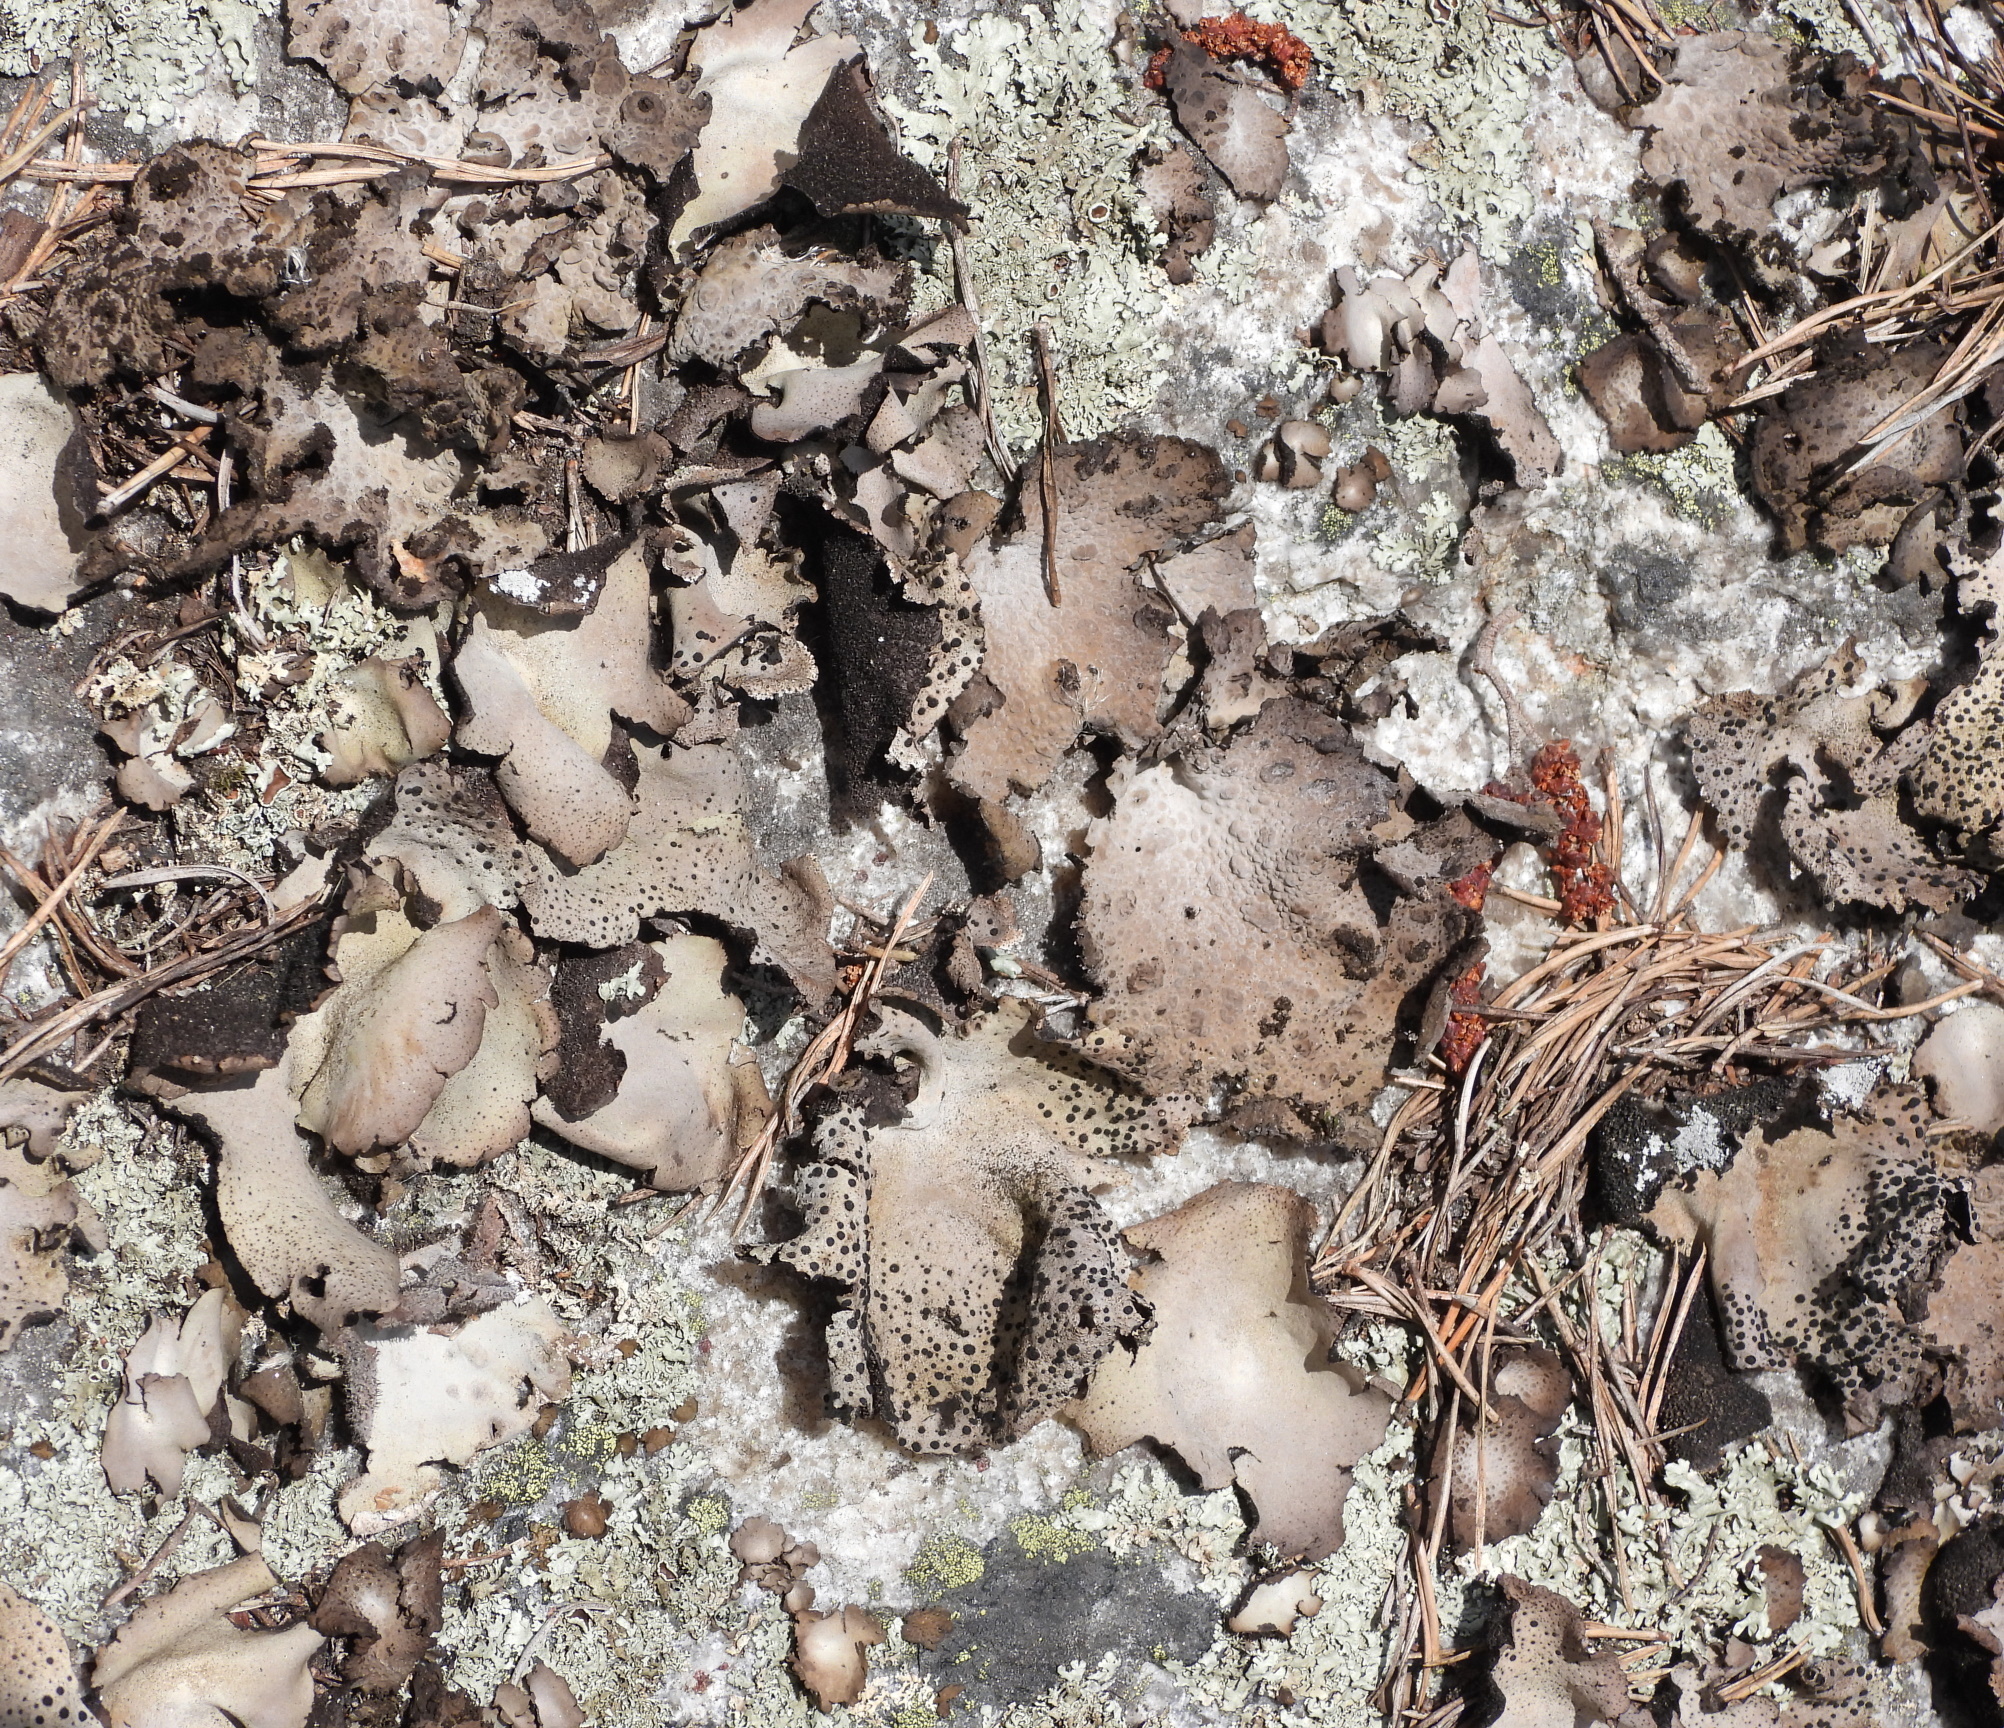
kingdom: Fungi
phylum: Ascomycota
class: Lecanoromycetes
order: Umbilicariales
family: Umbilicariaceae
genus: Umbilicaria
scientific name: Umbilicaria spodochroa
